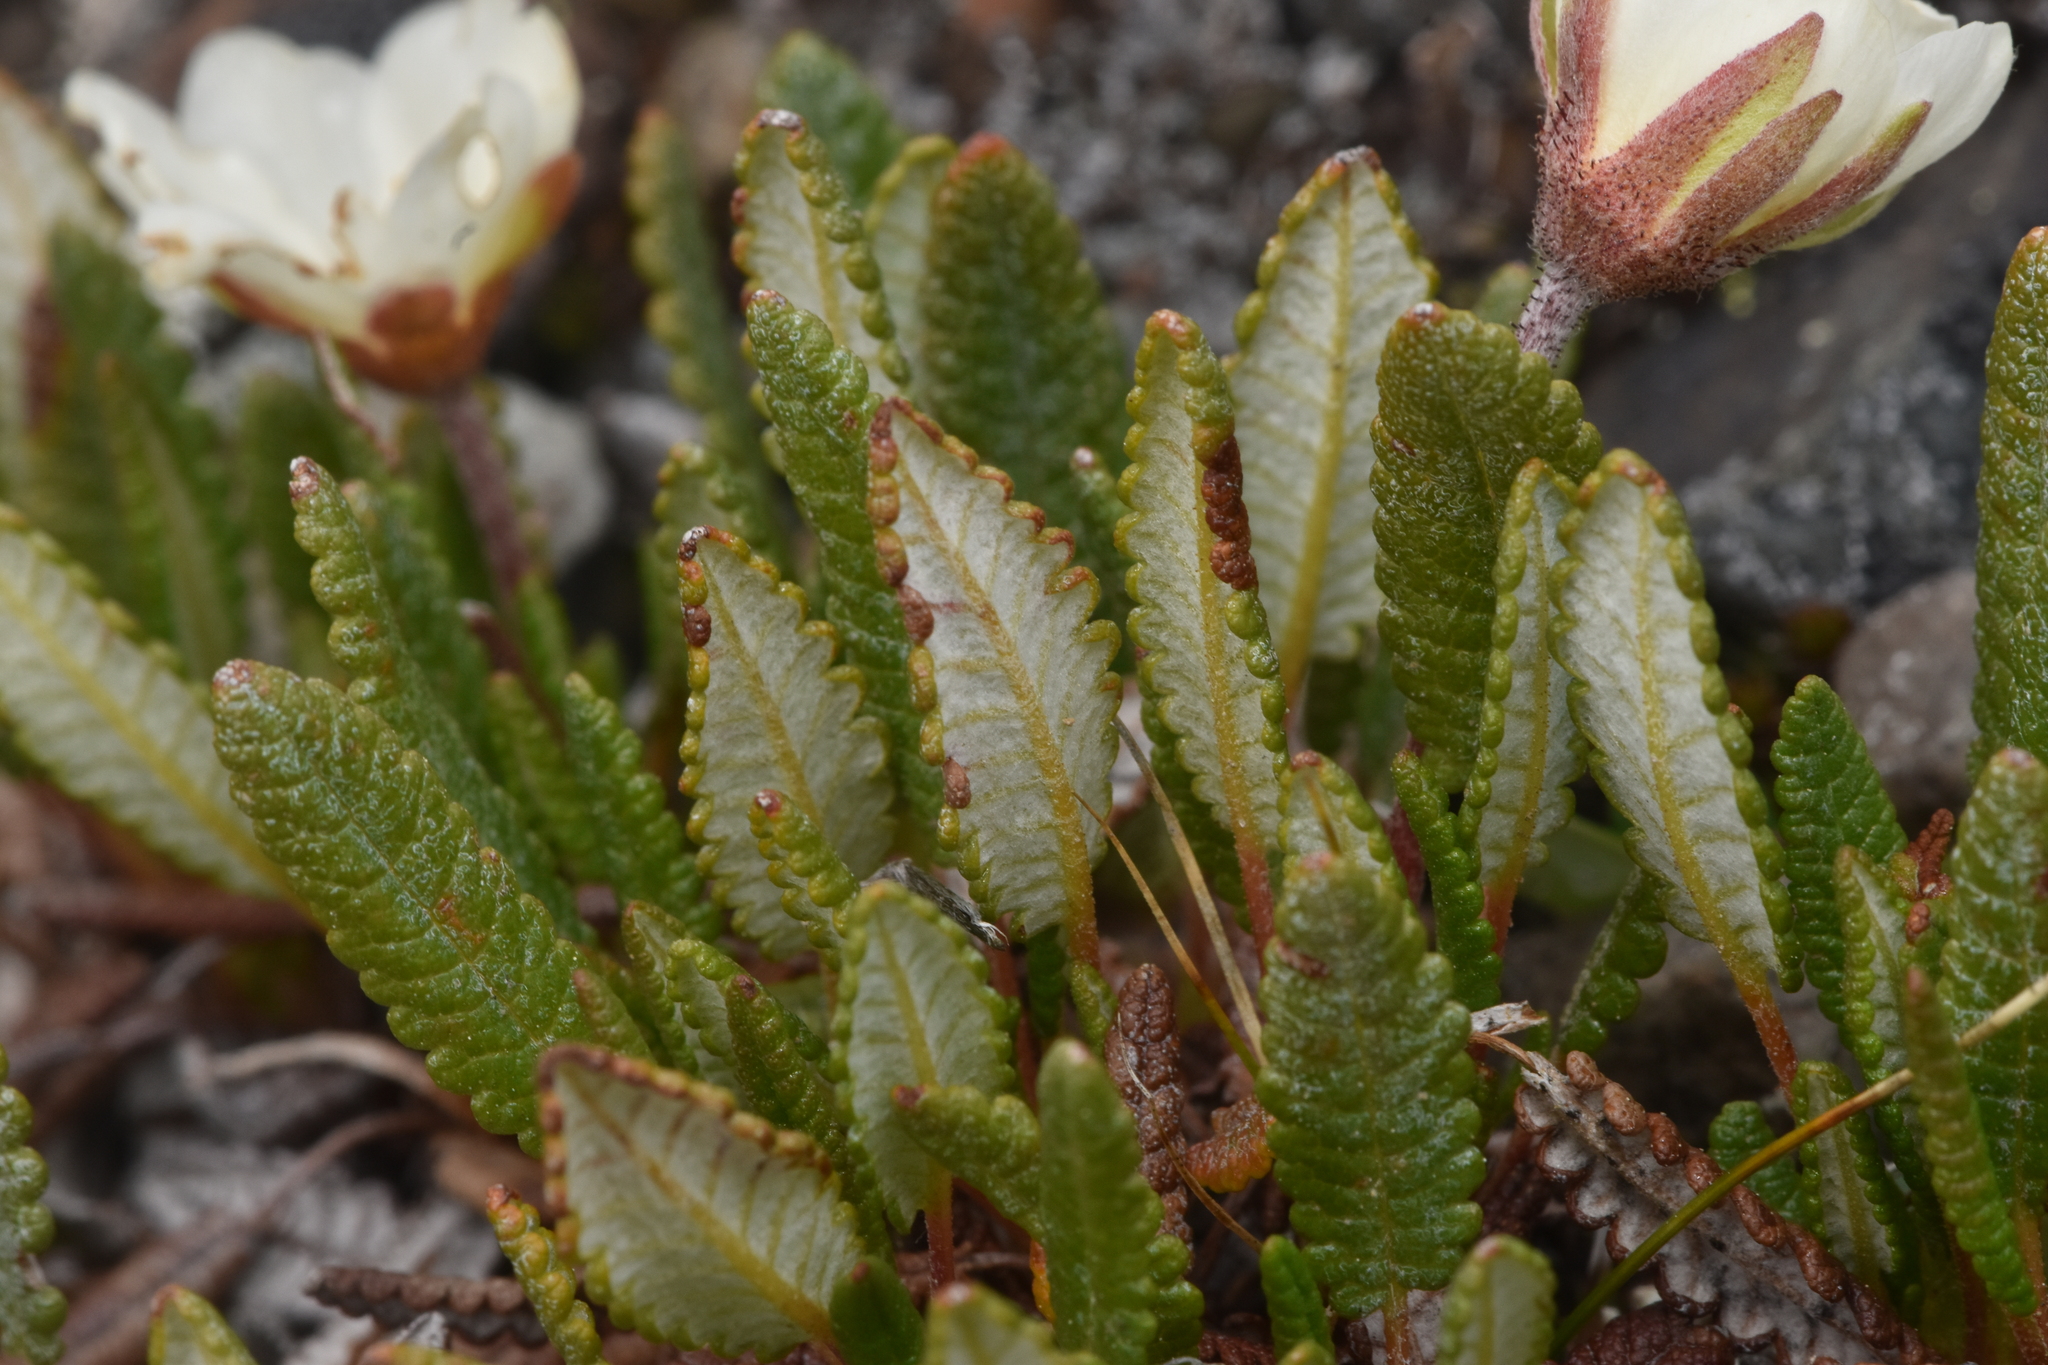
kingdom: Plantae
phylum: Tracheophyta
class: Magnoliopsida
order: Rosales
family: Rosaceae
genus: Dryas
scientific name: Dryas octopetala
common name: Eight-petal mountain-avens
